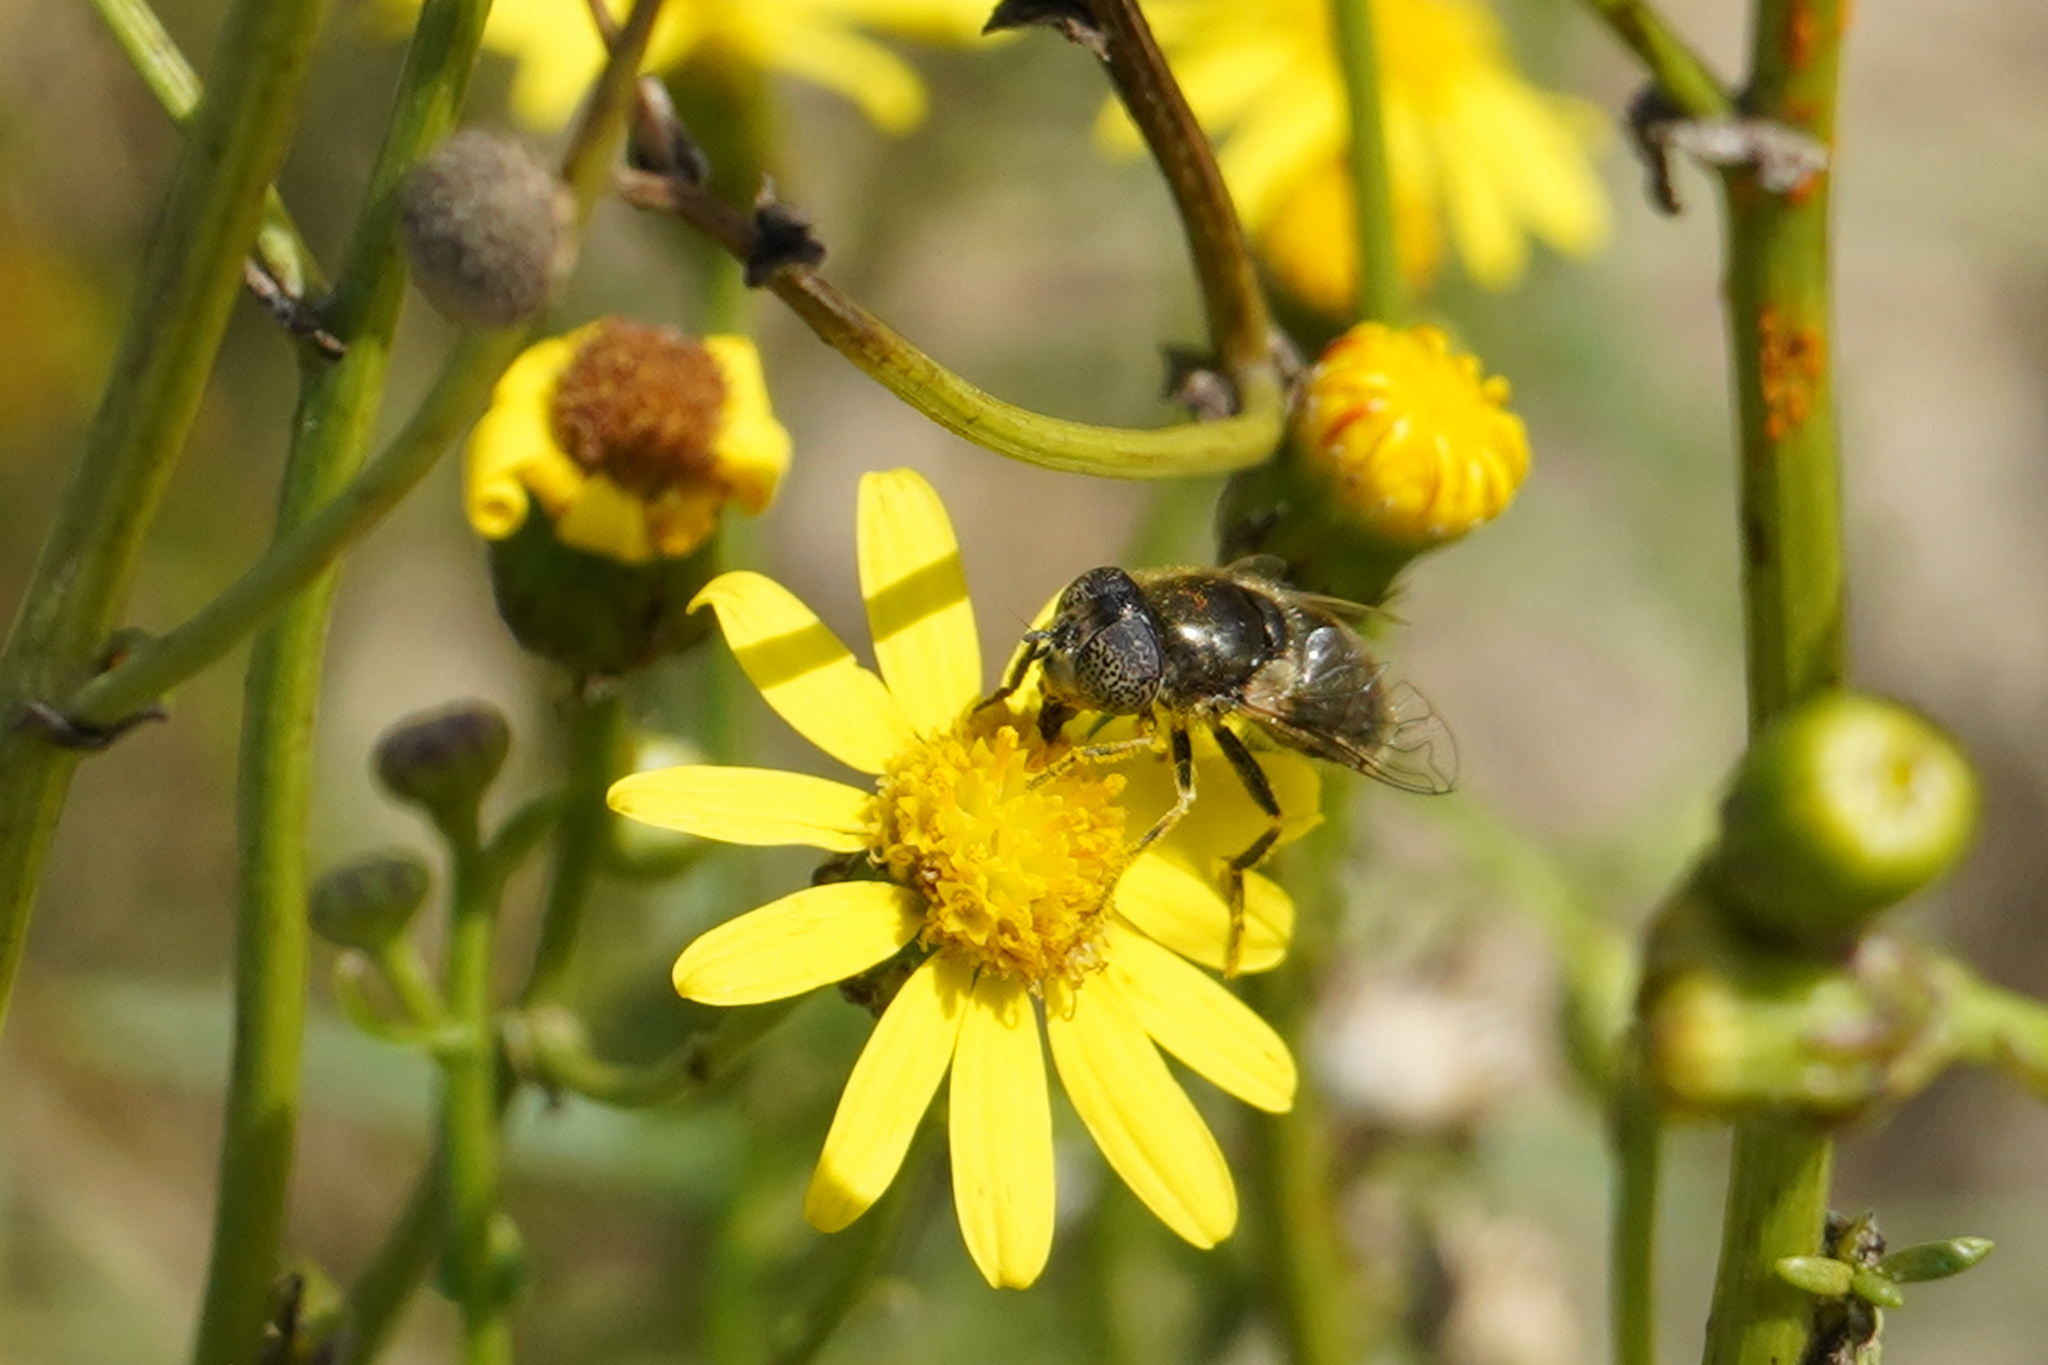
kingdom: Animalia
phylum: Arthropoda
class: Insecta
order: Diptera
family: Syrphidae
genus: Eristalinus
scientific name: Eristalinus aeneus
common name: Syrphid fly
